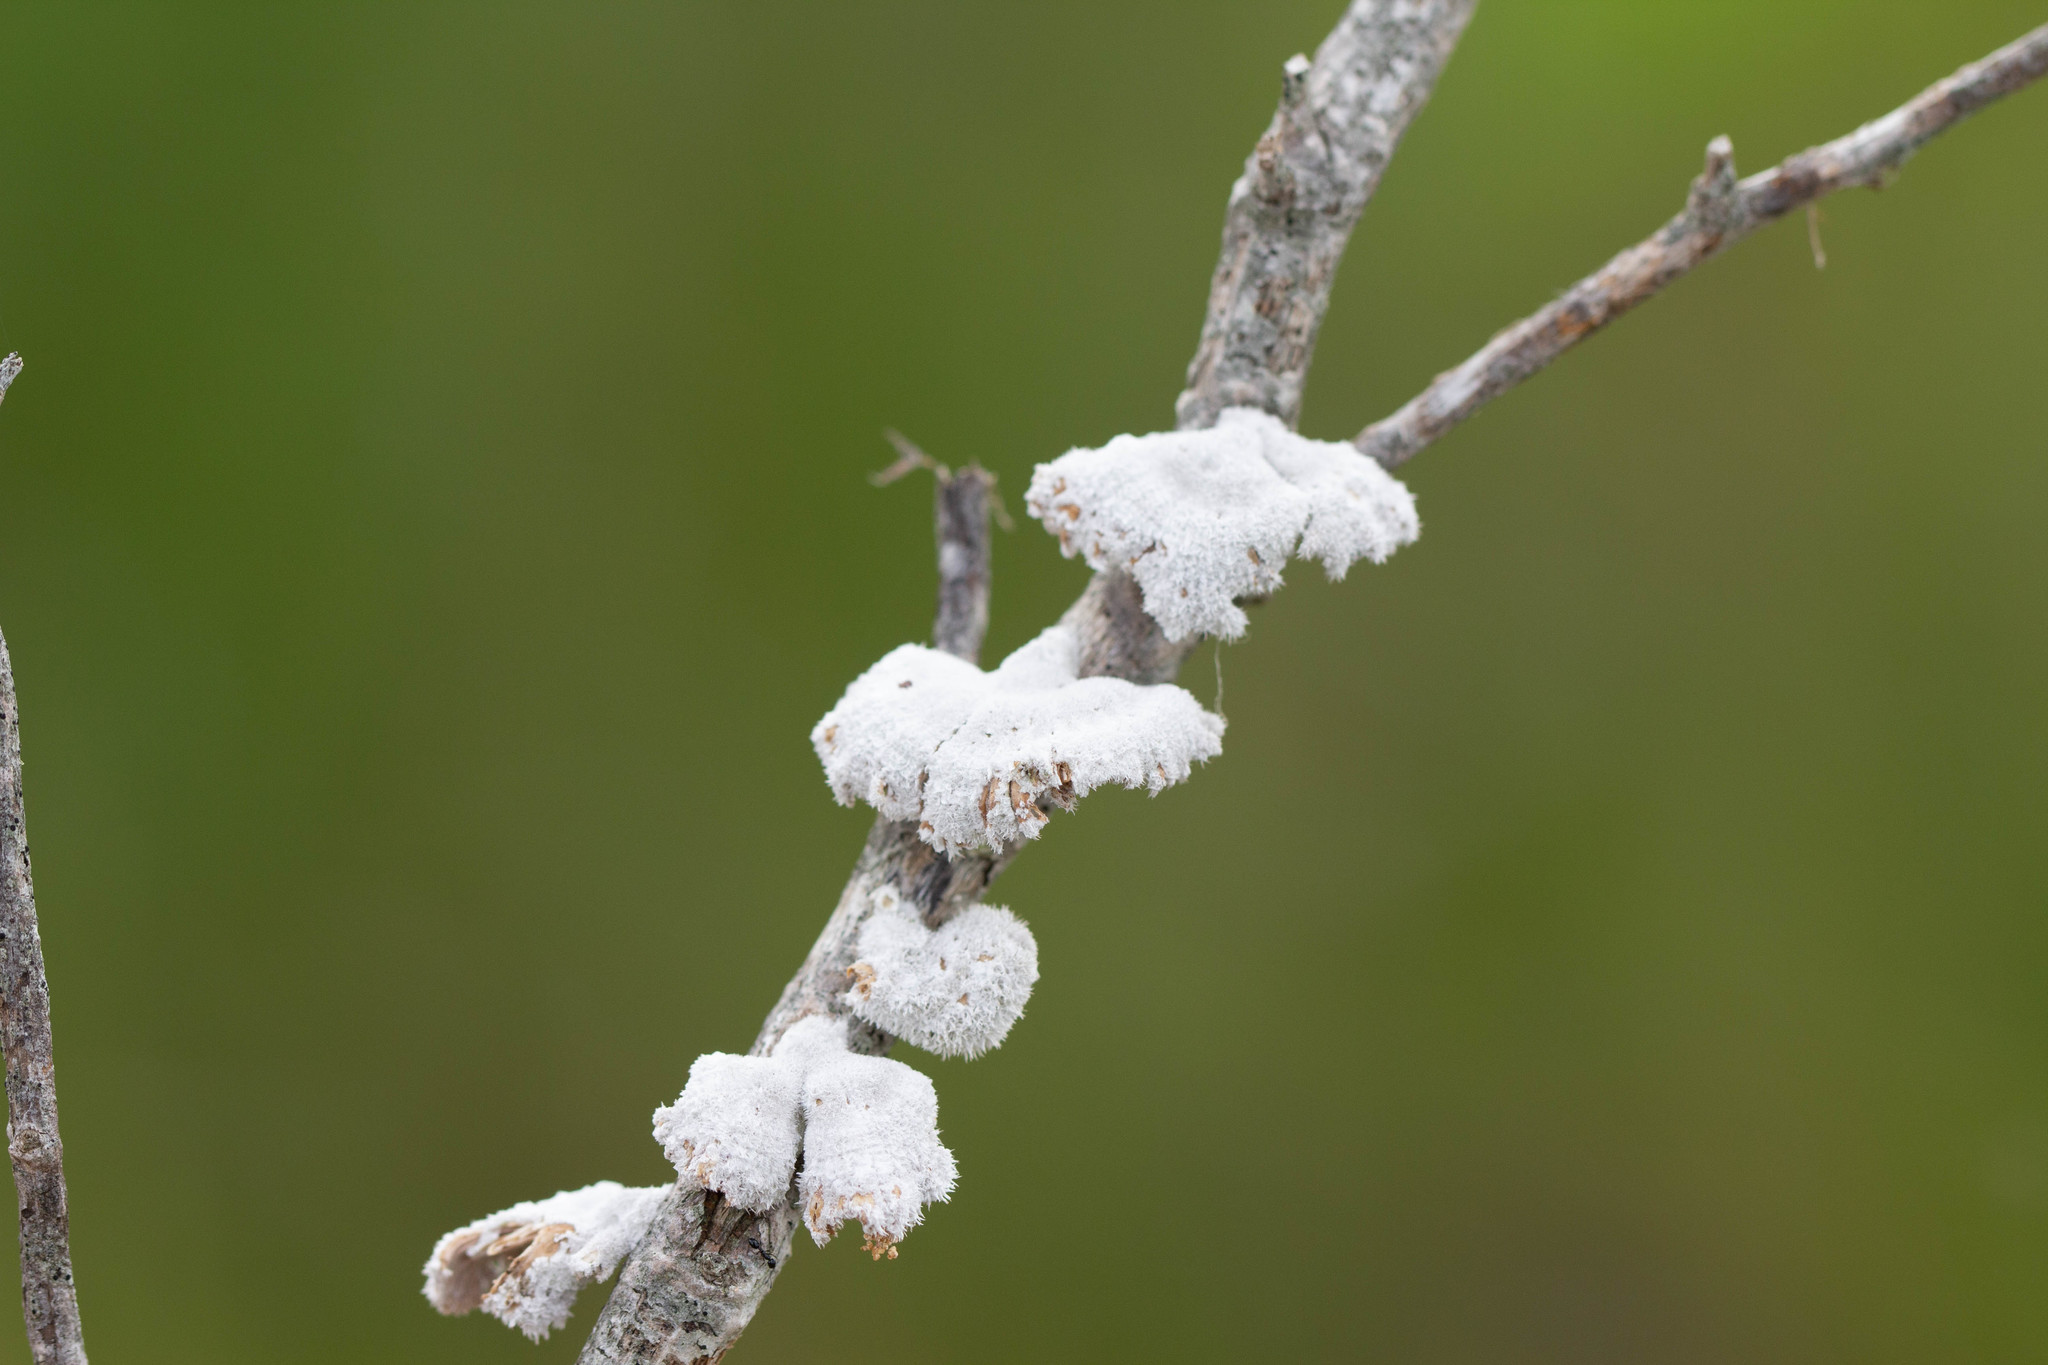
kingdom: Fungi
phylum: Basidiomycota
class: Agaricomycetes
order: Agaricales
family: Schizophyllaceae
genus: Schizophyllum
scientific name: Schizophyllum commune
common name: Common porecrust
